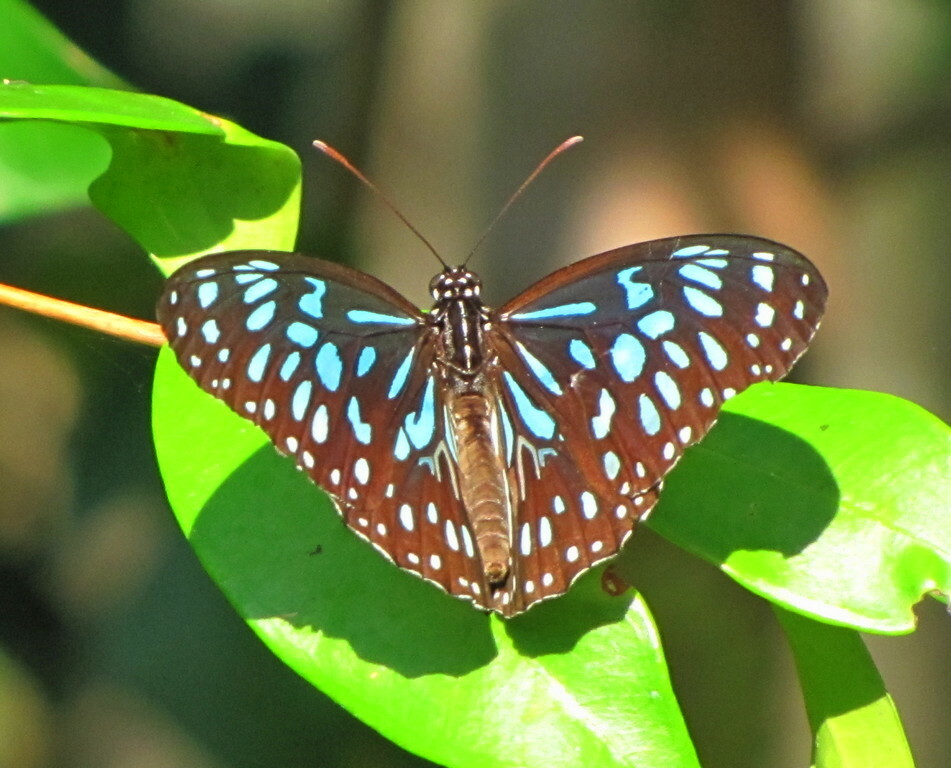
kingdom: Animalia
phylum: Arthropoda
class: Insecta
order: Lepidoptera
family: Nymphalidae
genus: Tirumala
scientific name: Tirumala hamata
